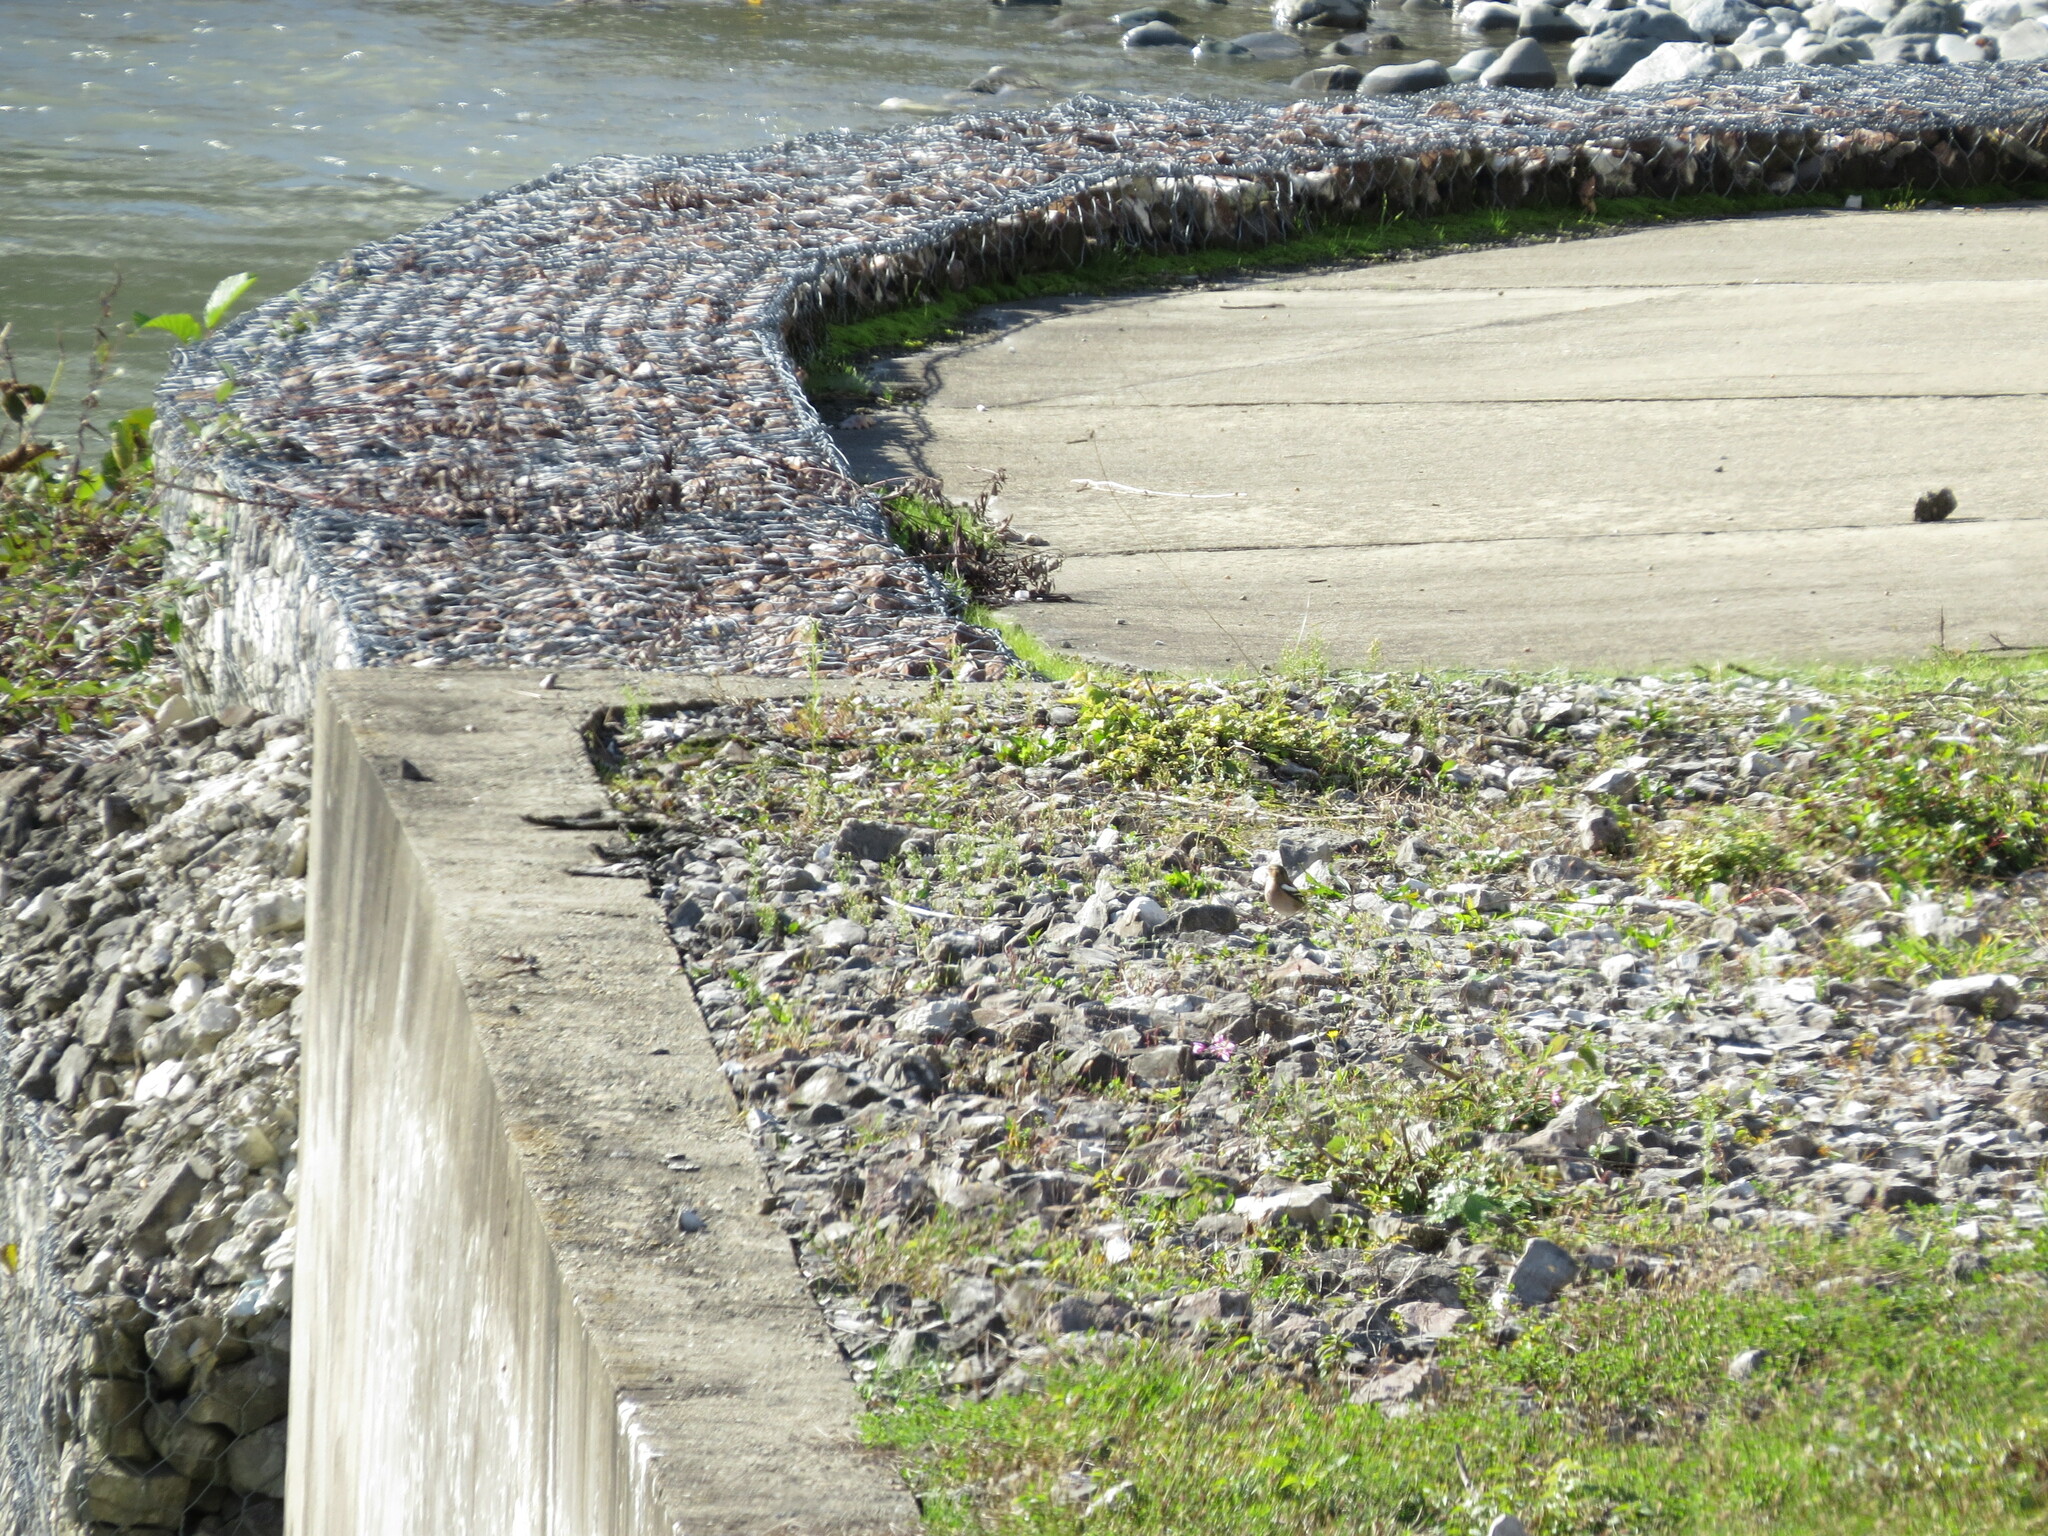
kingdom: Animalia
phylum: Chordata
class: Aves
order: Passeriformes
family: Fringillidae
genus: Fringilla
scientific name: Fringilla coelebs
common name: Common chaffinch
